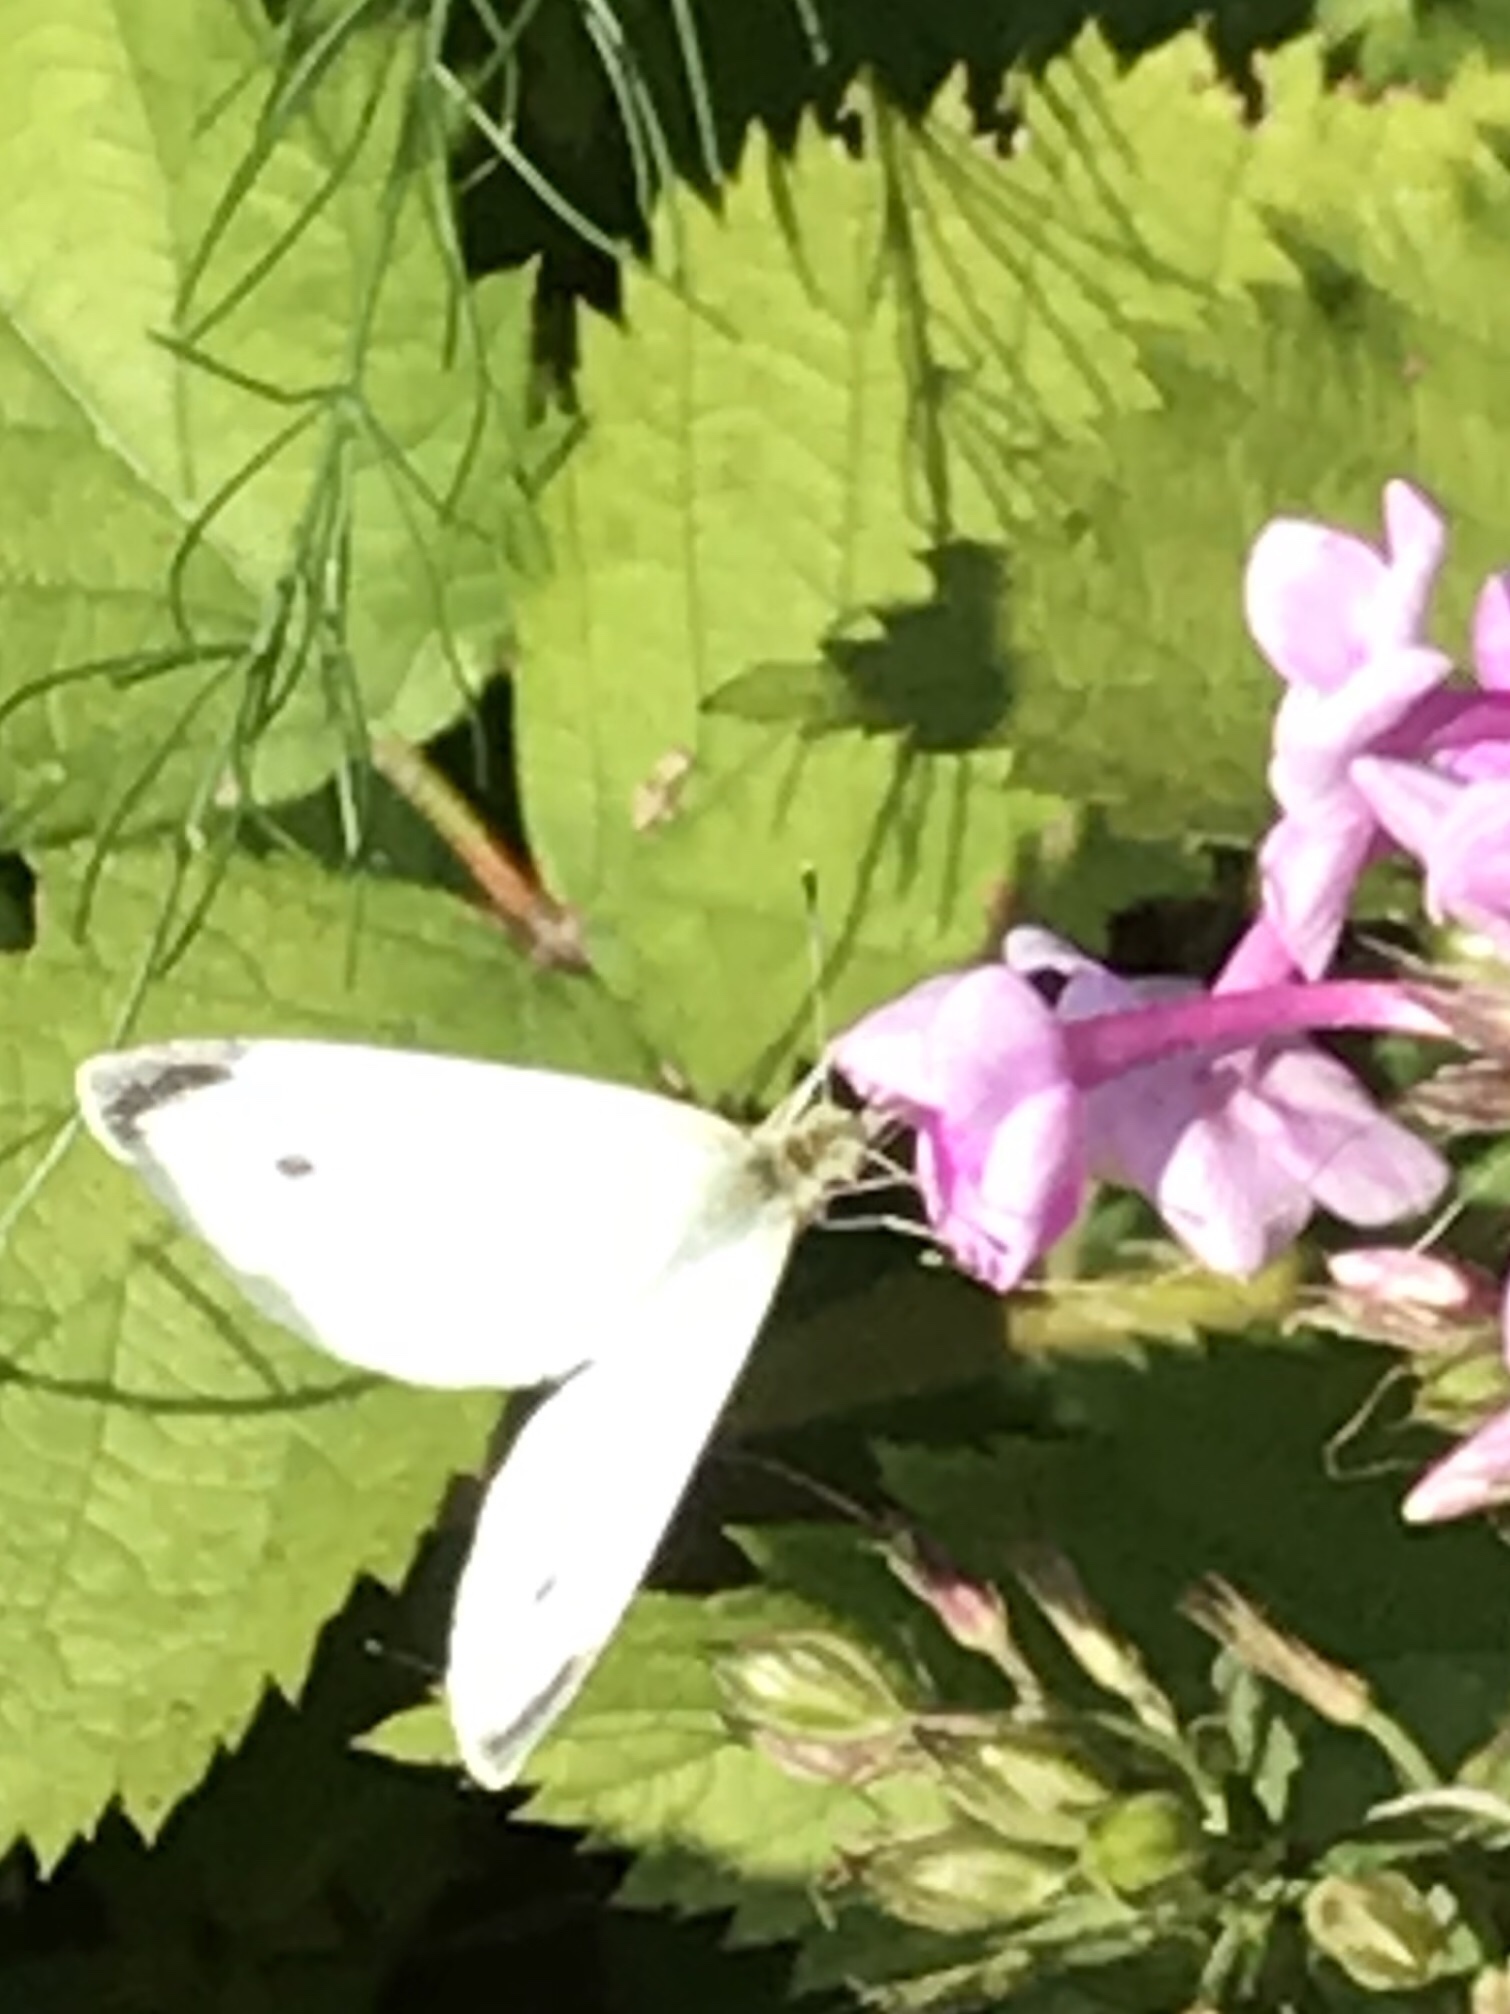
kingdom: Animalia
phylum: Arthropoda
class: Insecta
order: Lepidoptera
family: Pieridae
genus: Pieris
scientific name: Pieris rapae
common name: Small white
